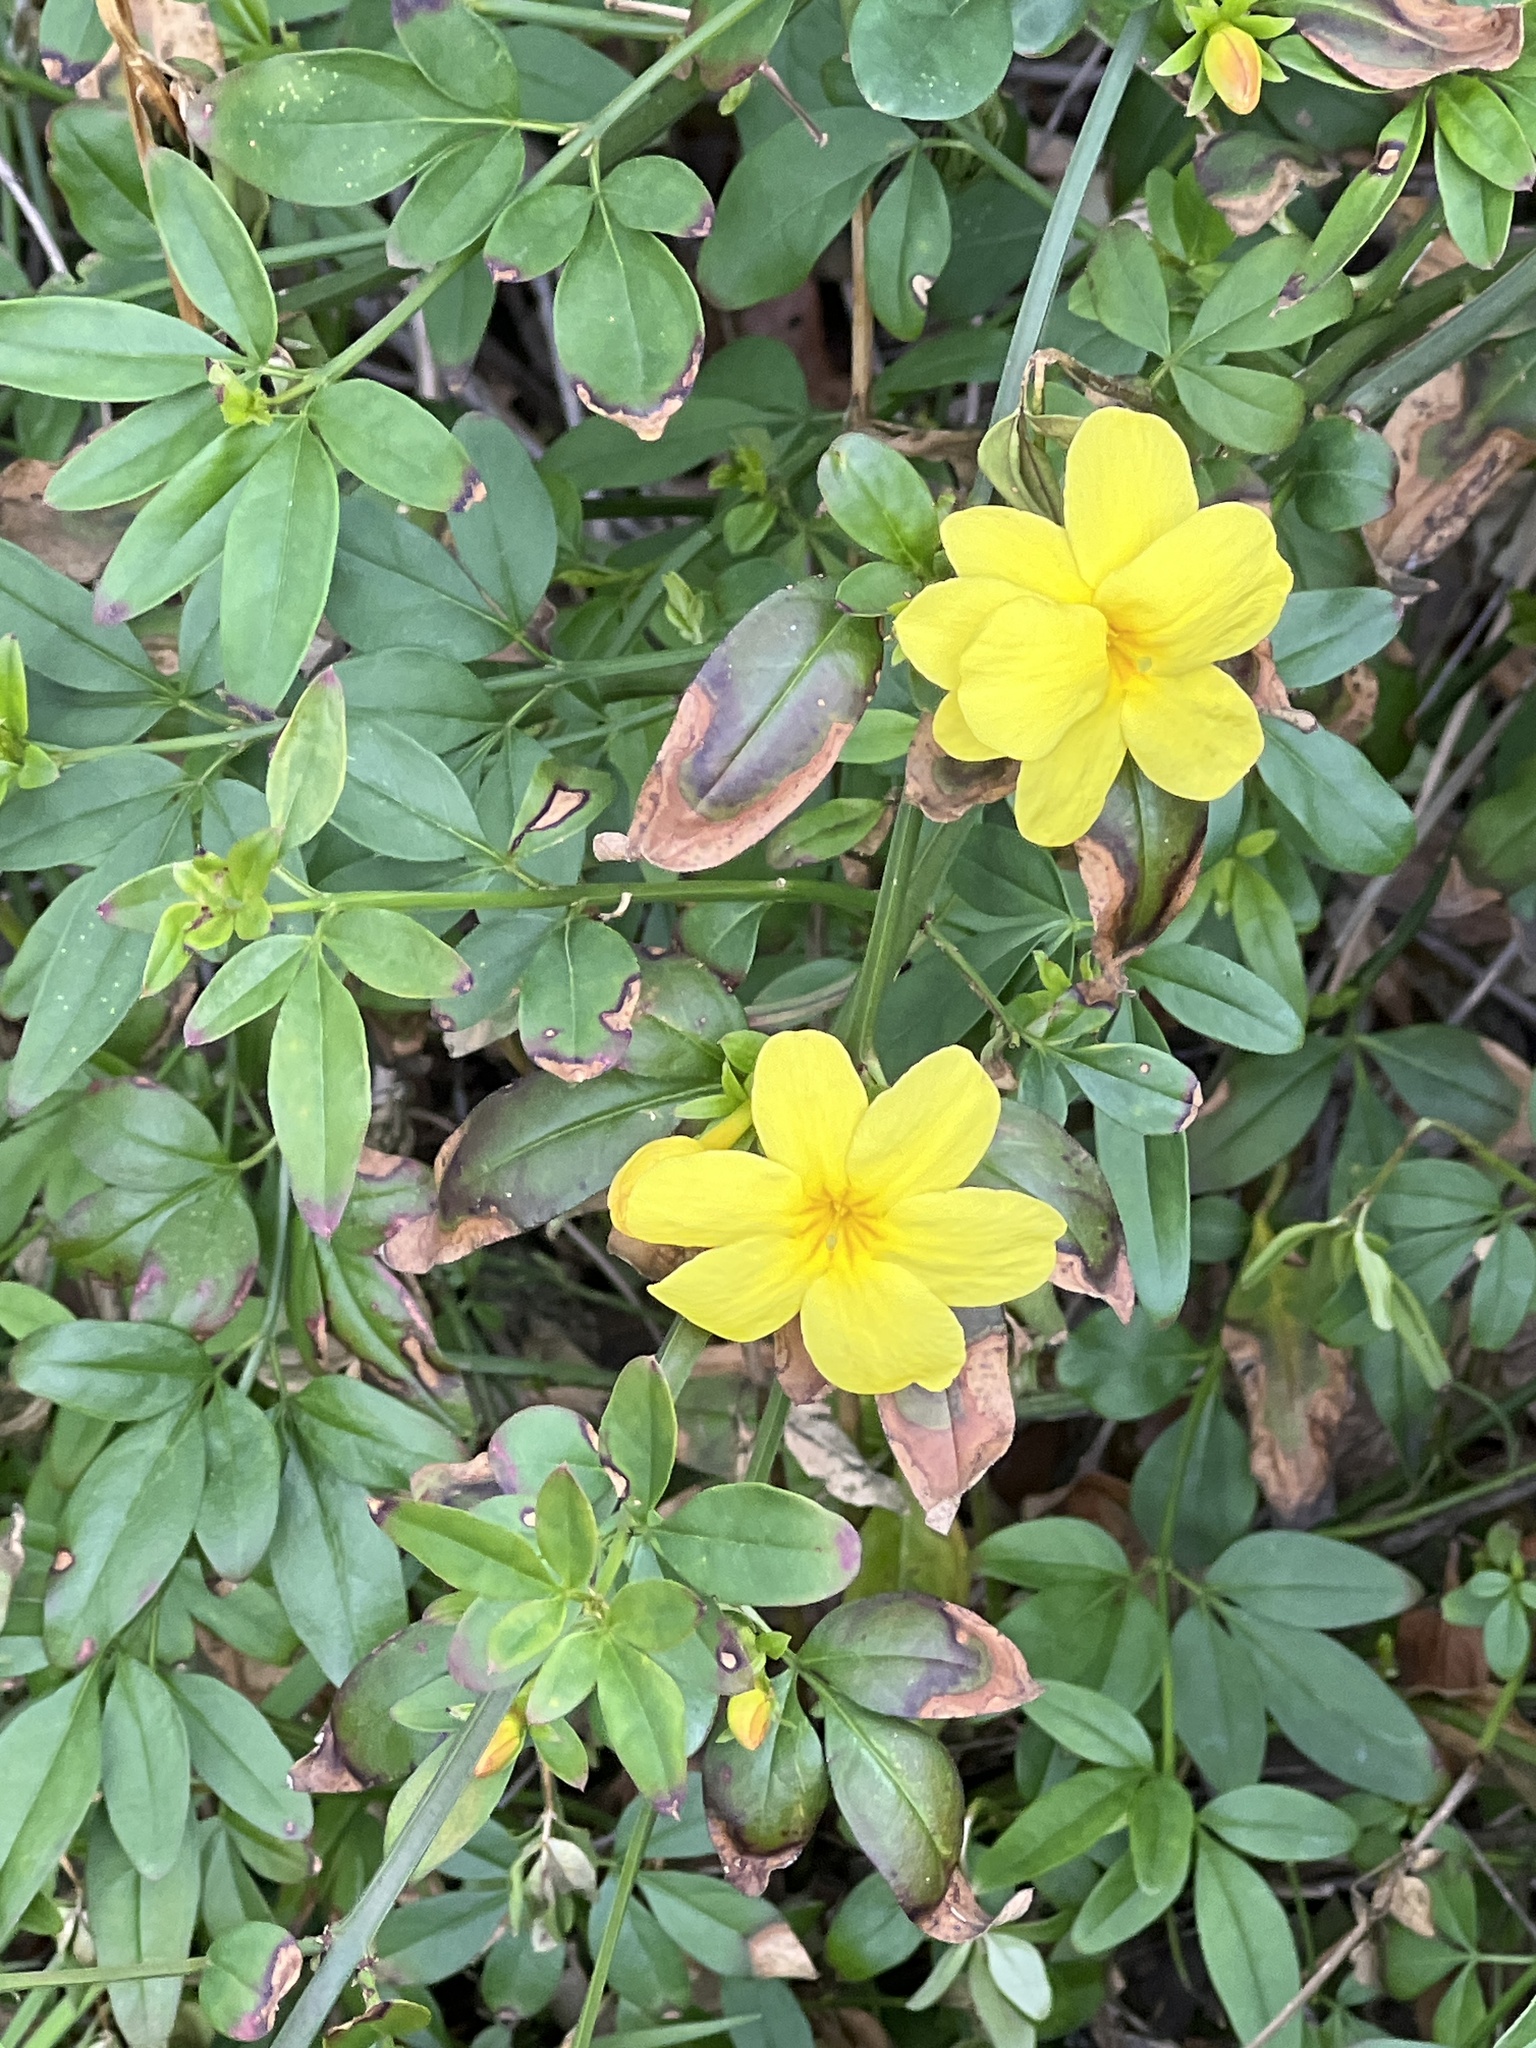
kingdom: Plantae
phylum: Tracheophyta
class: Magnoliopsida
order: Lamiales
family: Oleaceae
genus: Jasminum
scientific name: Jasminum mesnyi
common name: Japanese jasmine
